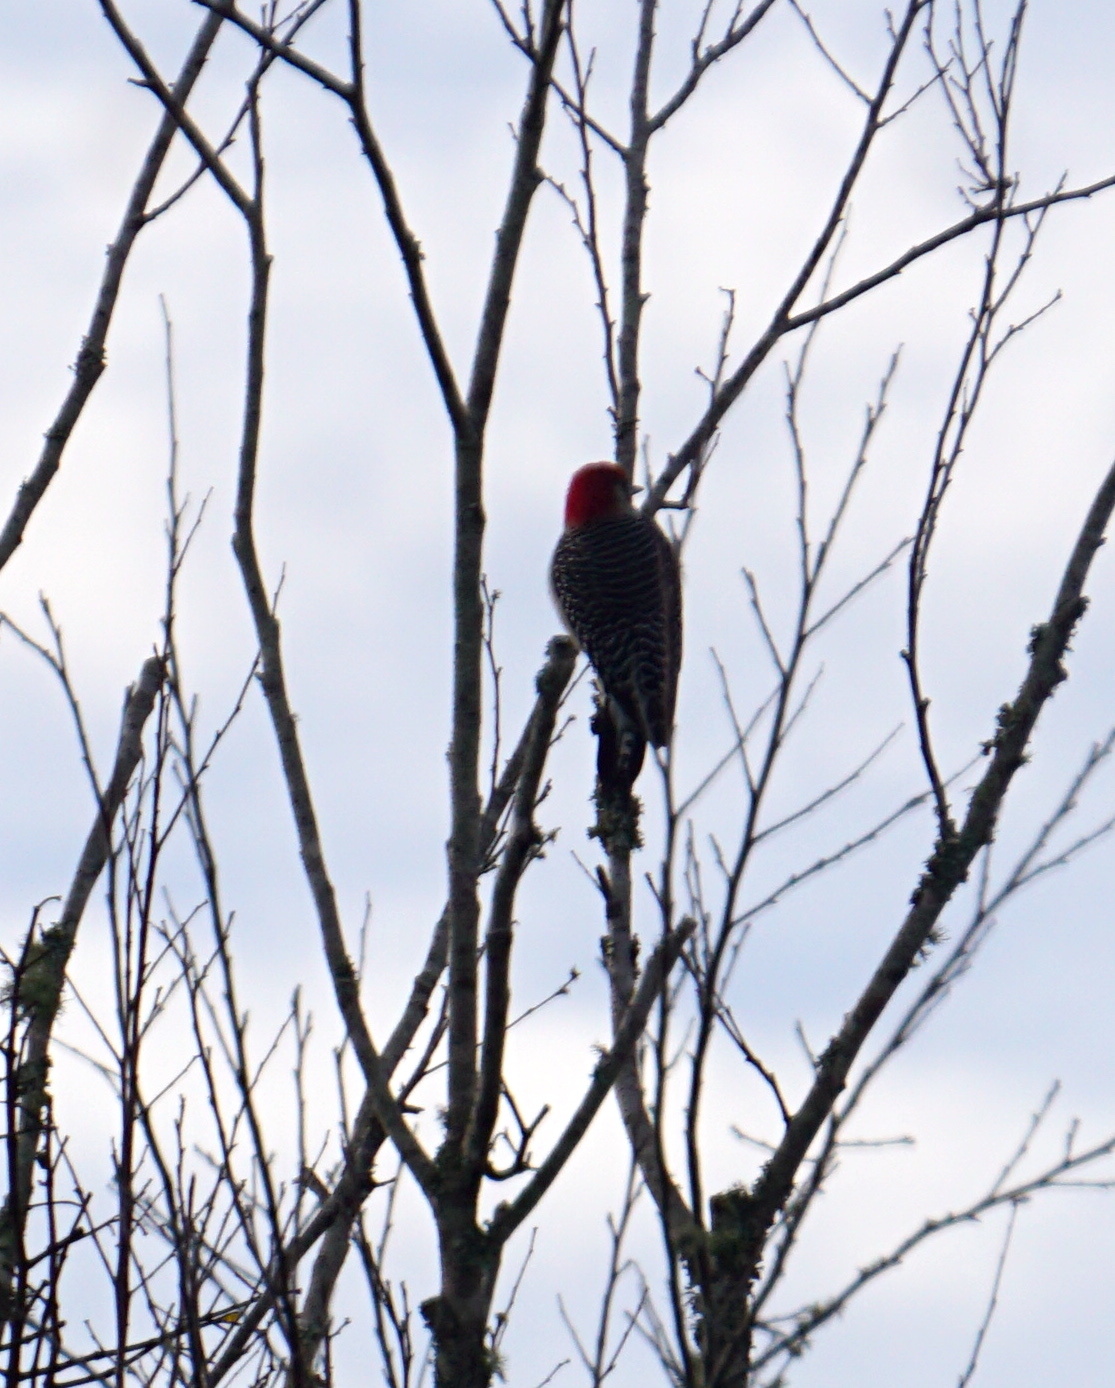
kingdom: Animalia
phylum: Chordata
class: Aves
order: Piciformes
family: Picidae
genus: Melanerpes
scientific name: Melanerpes carolinus
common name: Red-bellied woodpecker
